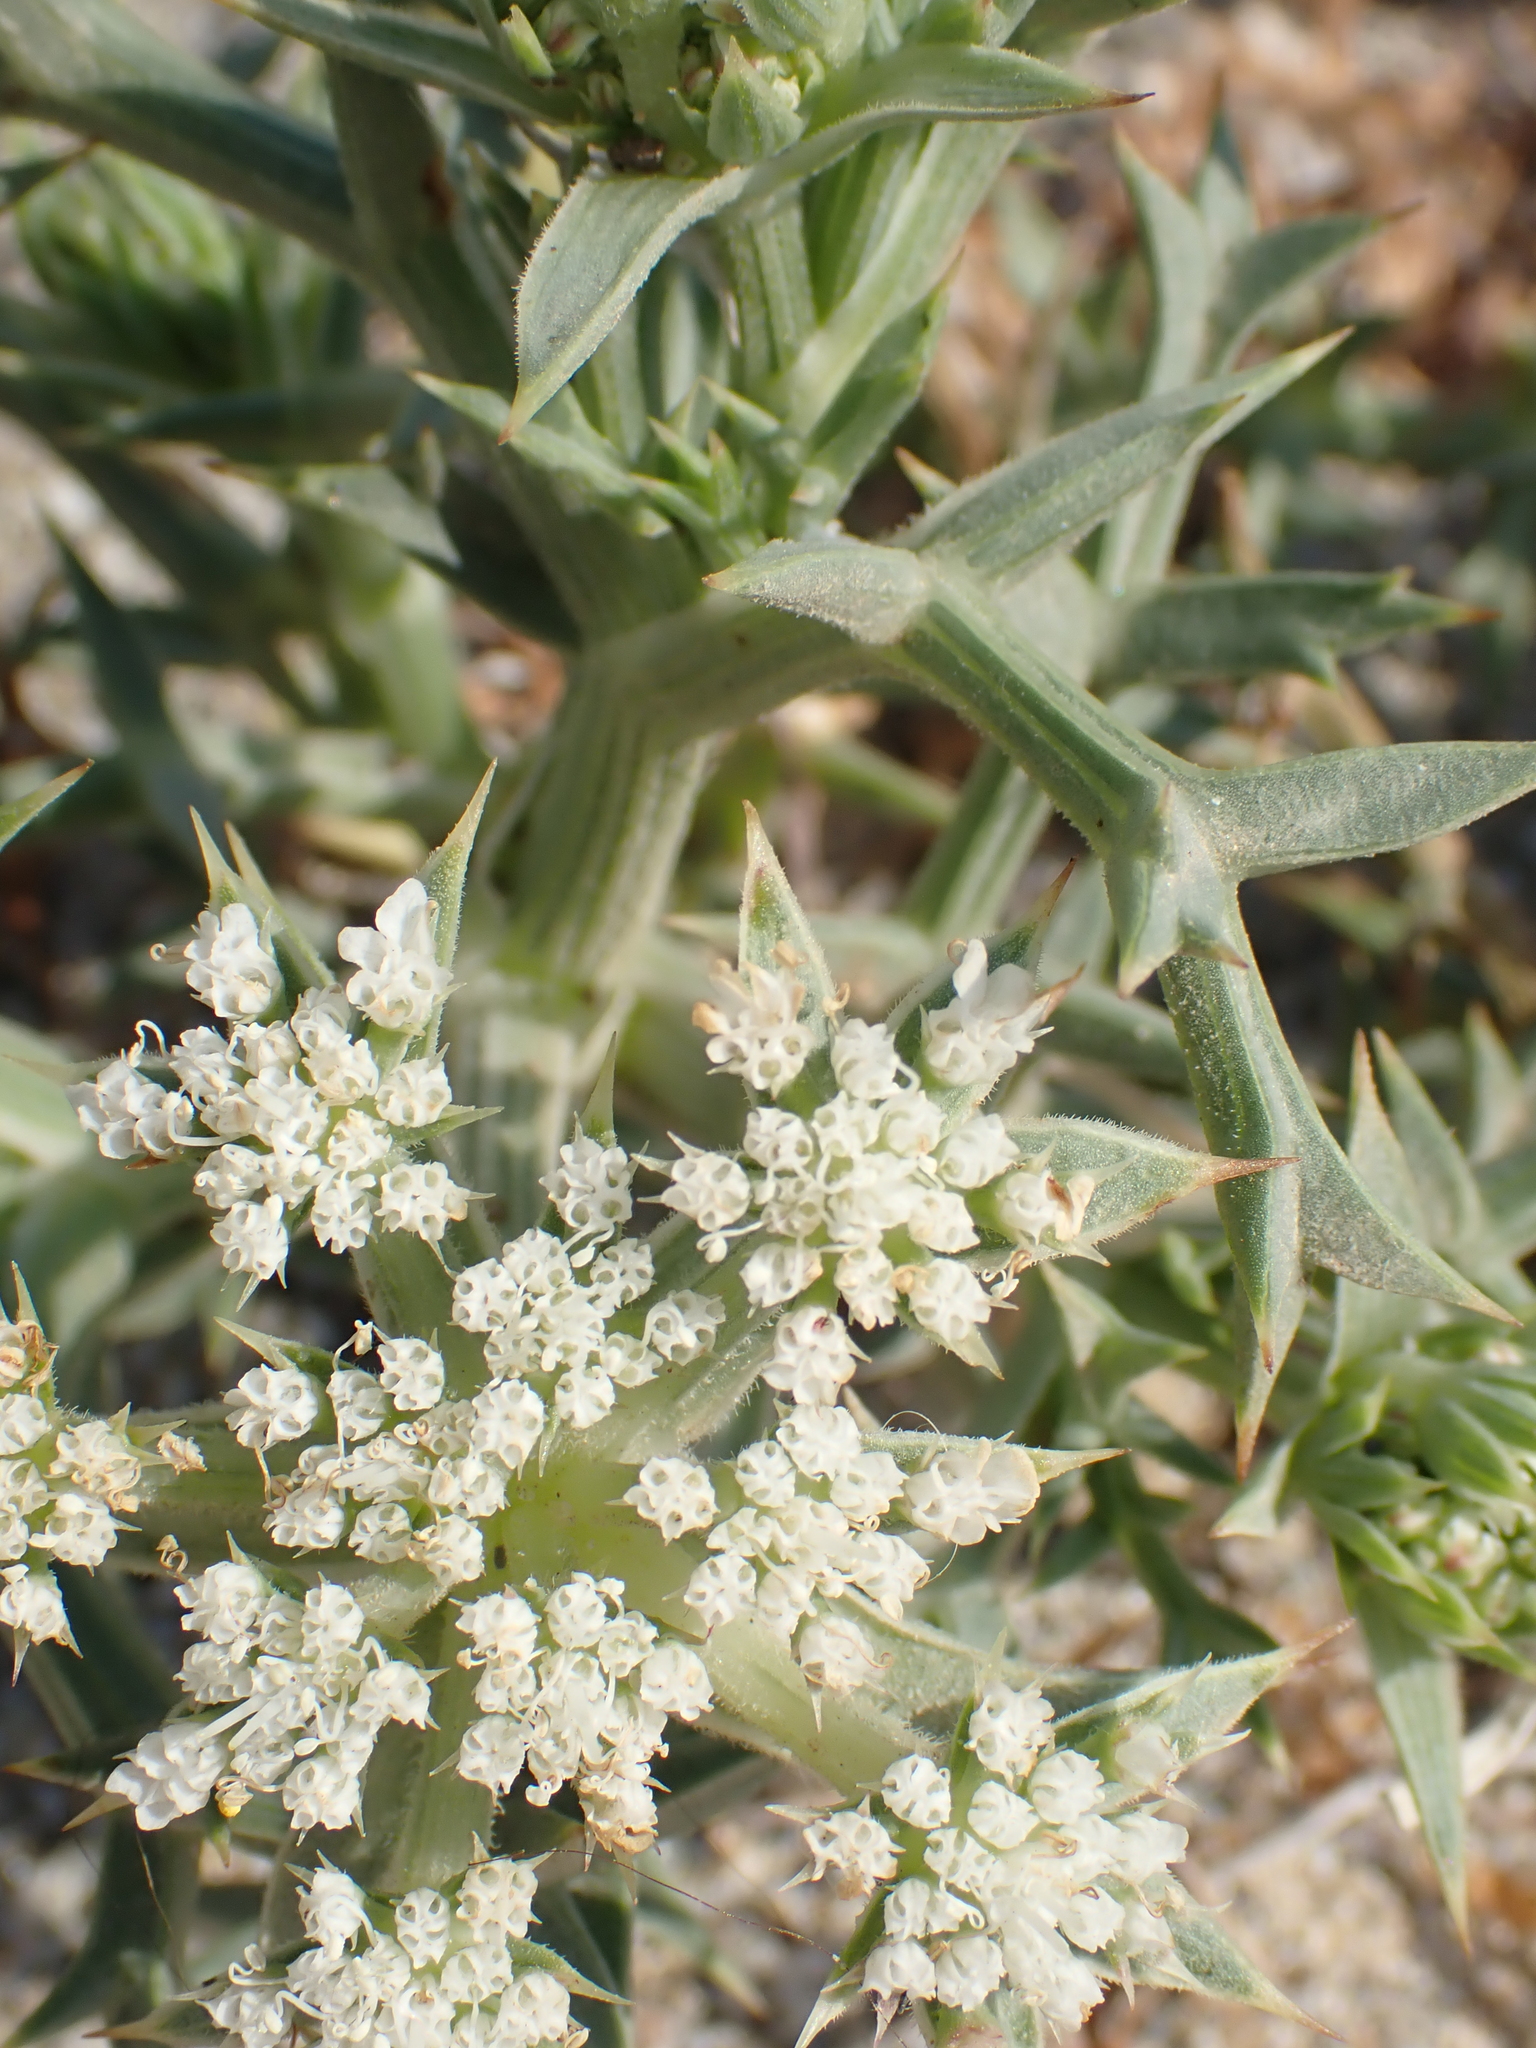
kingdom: Plantae
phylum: Tracheophyta
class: Magnoliopsida
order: Apiales
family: Apiaceae
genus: Echinophora
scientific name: Echinophora spinosa
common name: Prickly samphire
